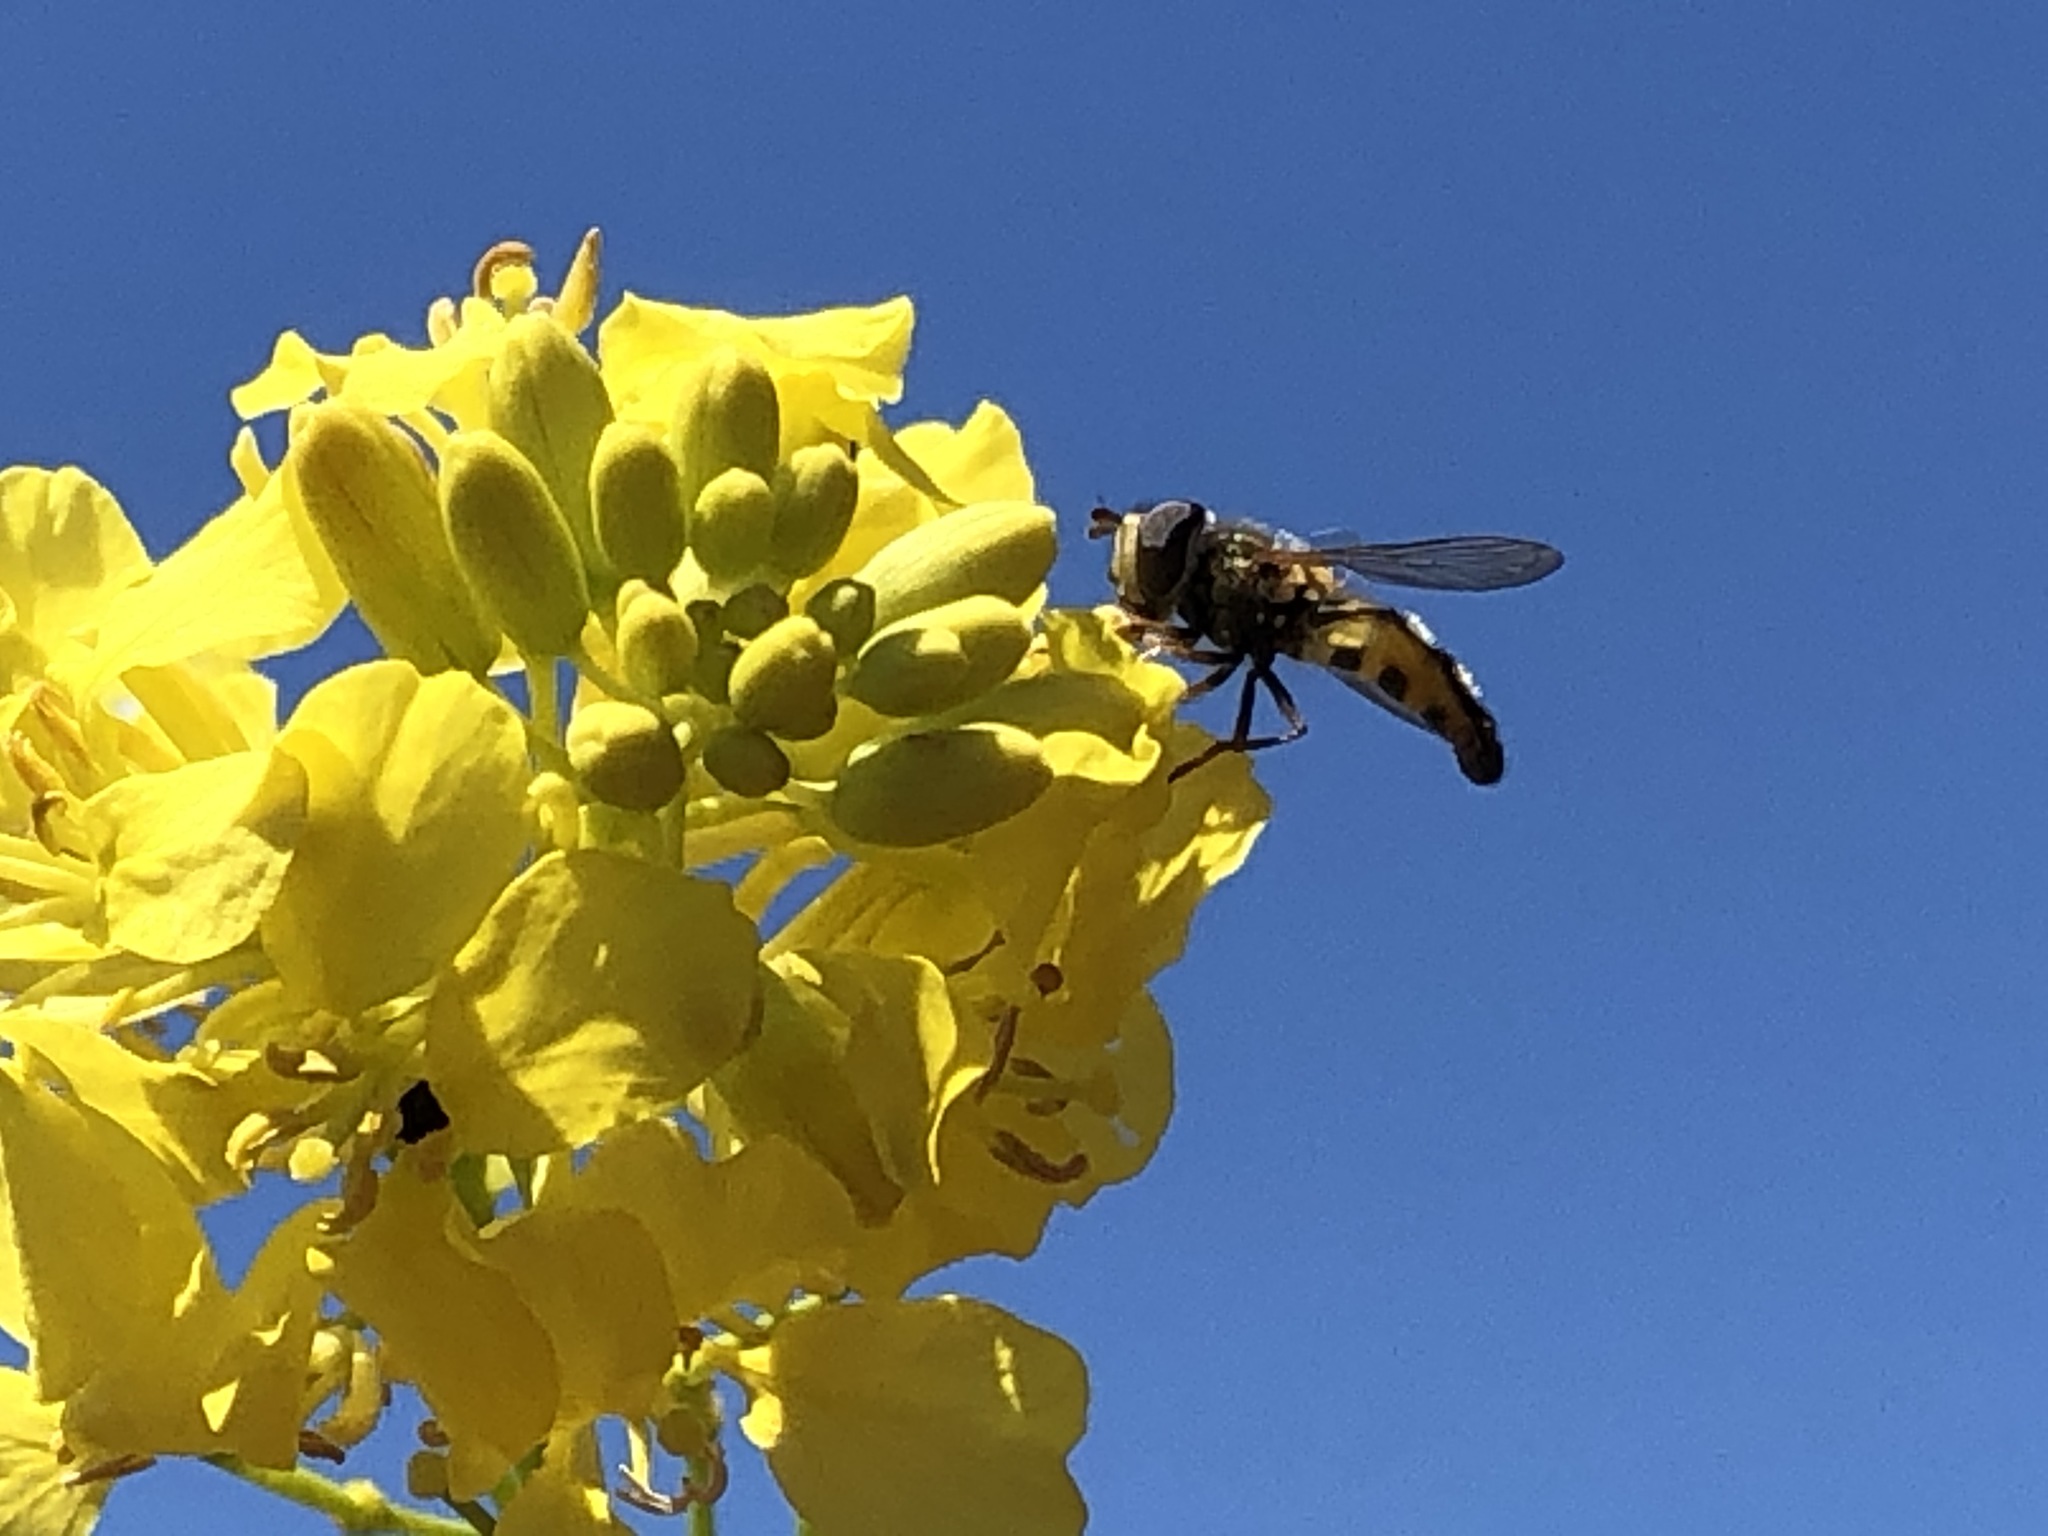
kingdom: Animalia
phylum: Arthropoda
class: Insecta
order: Diptera
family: Syrphidae
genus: Eupeodes
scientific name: Eupeodes fumipennis
